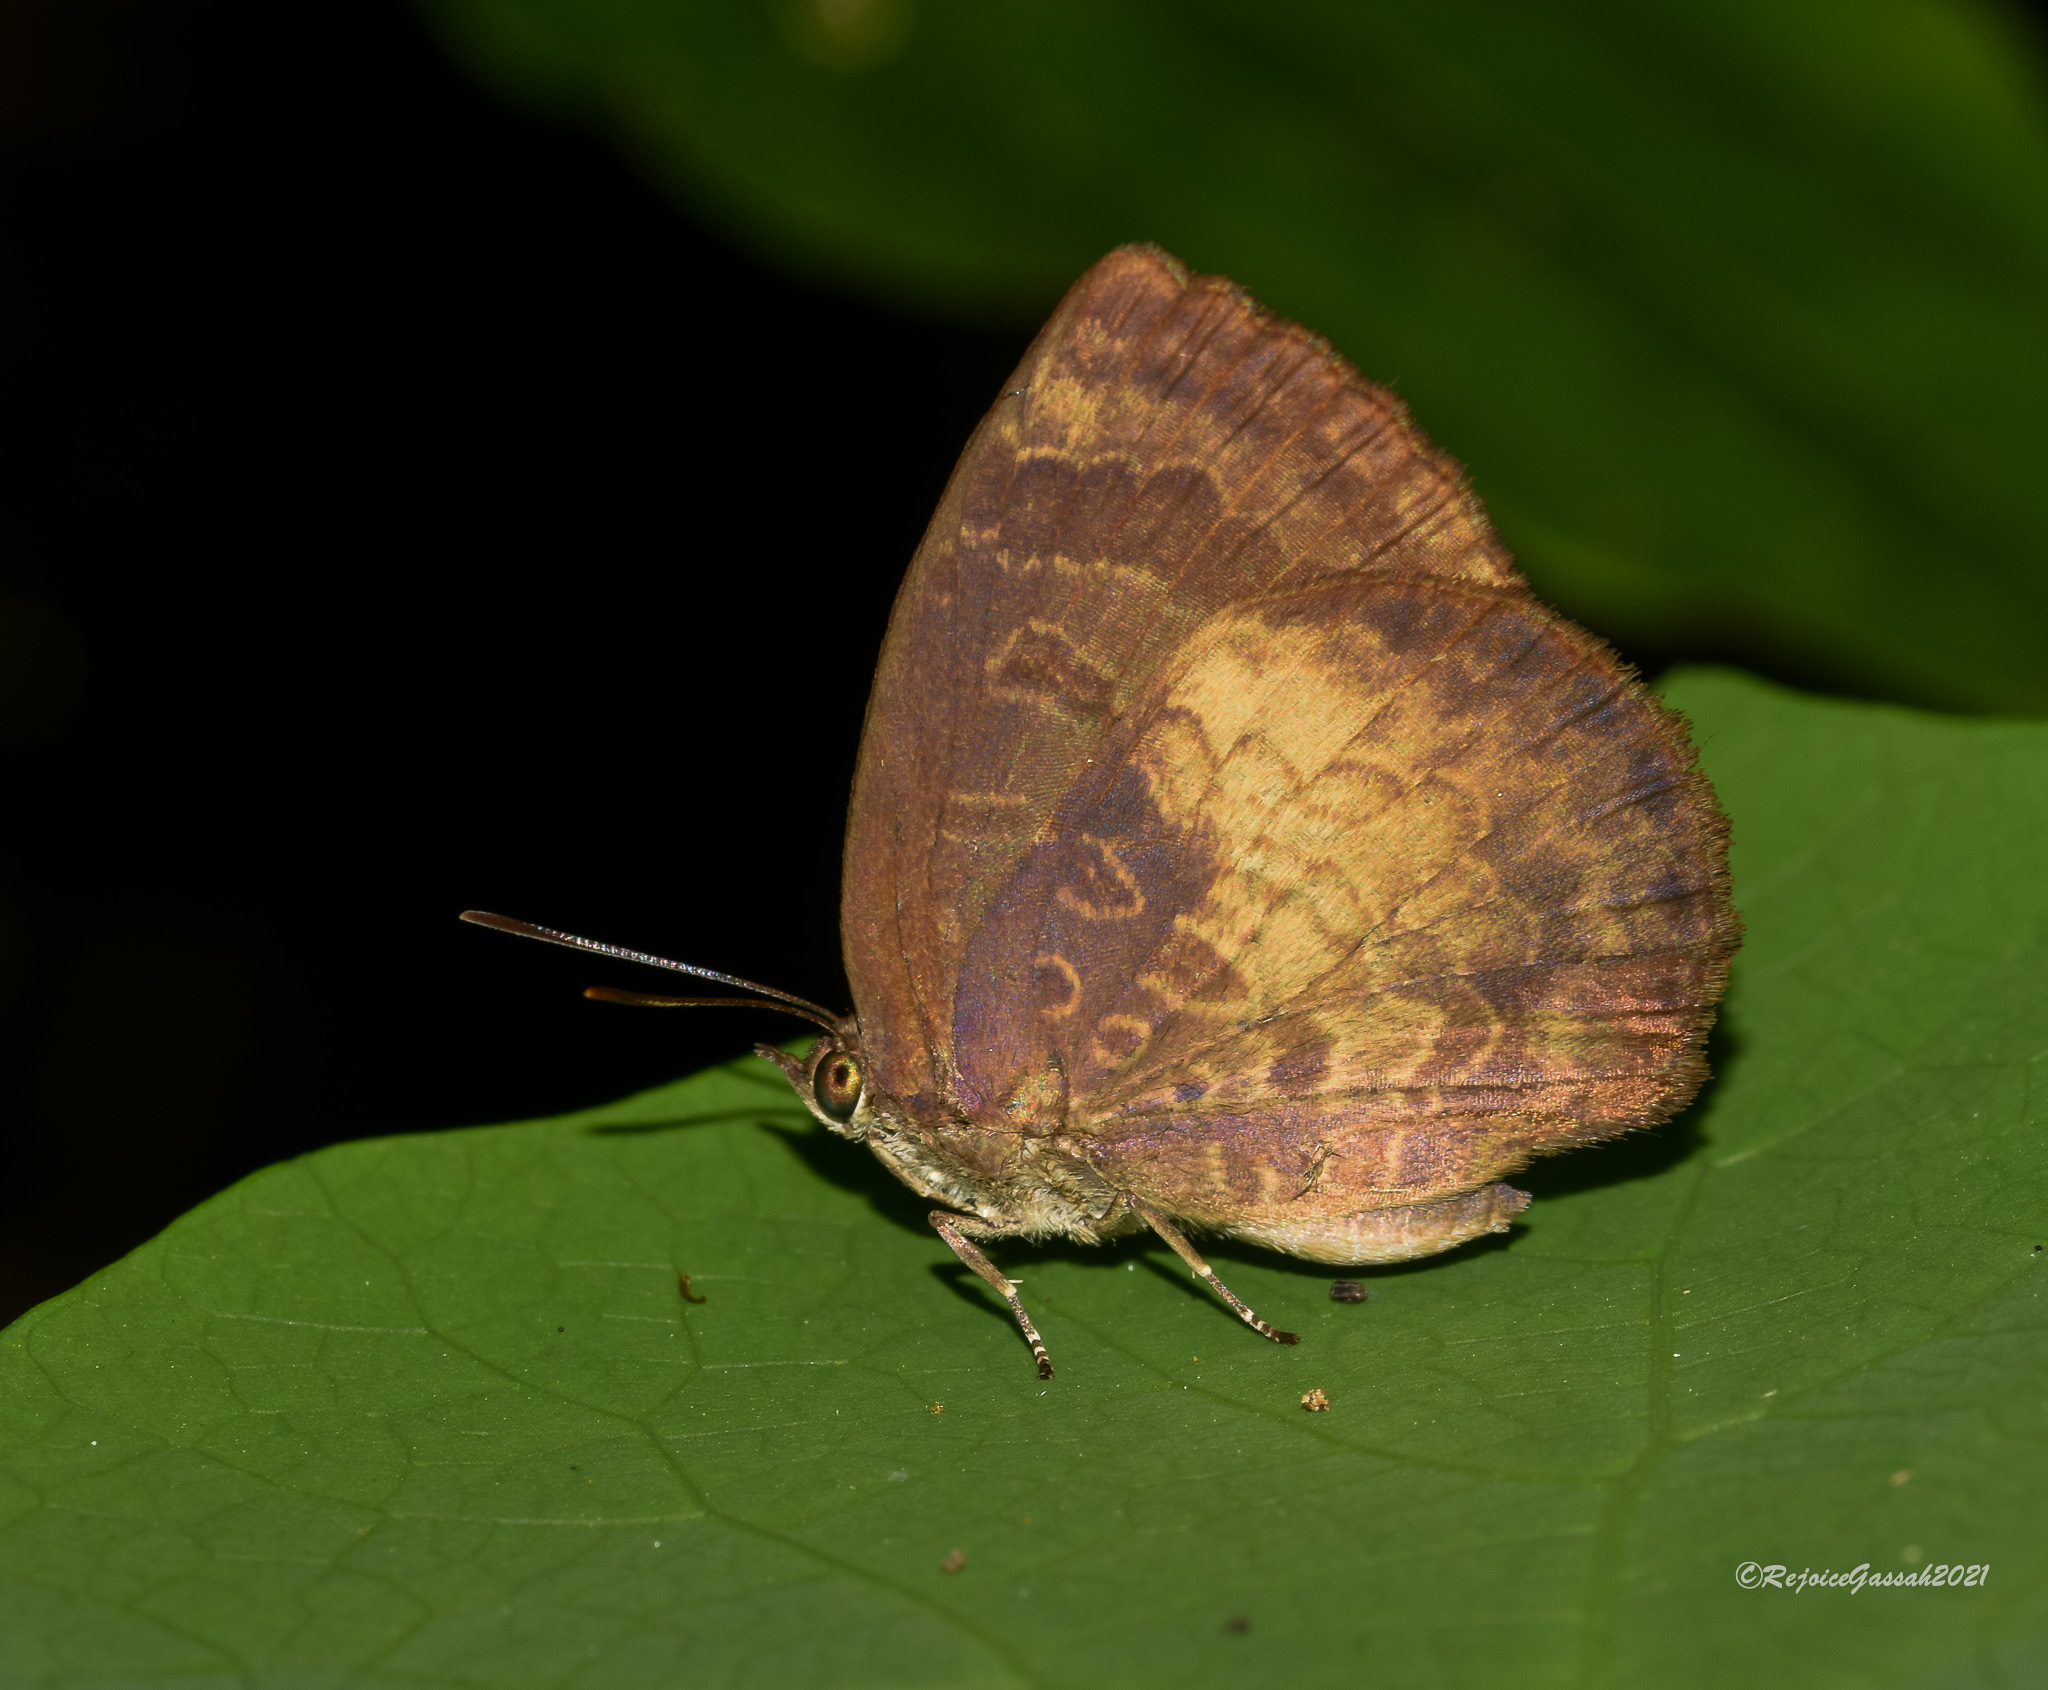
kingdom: Animalia
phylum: Arthropoda
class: Insecta
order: Lepidoptera
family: Lycaenidae
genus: Arhopala
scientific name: Arhopala perimuta
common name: Yellowdisc oakblue
